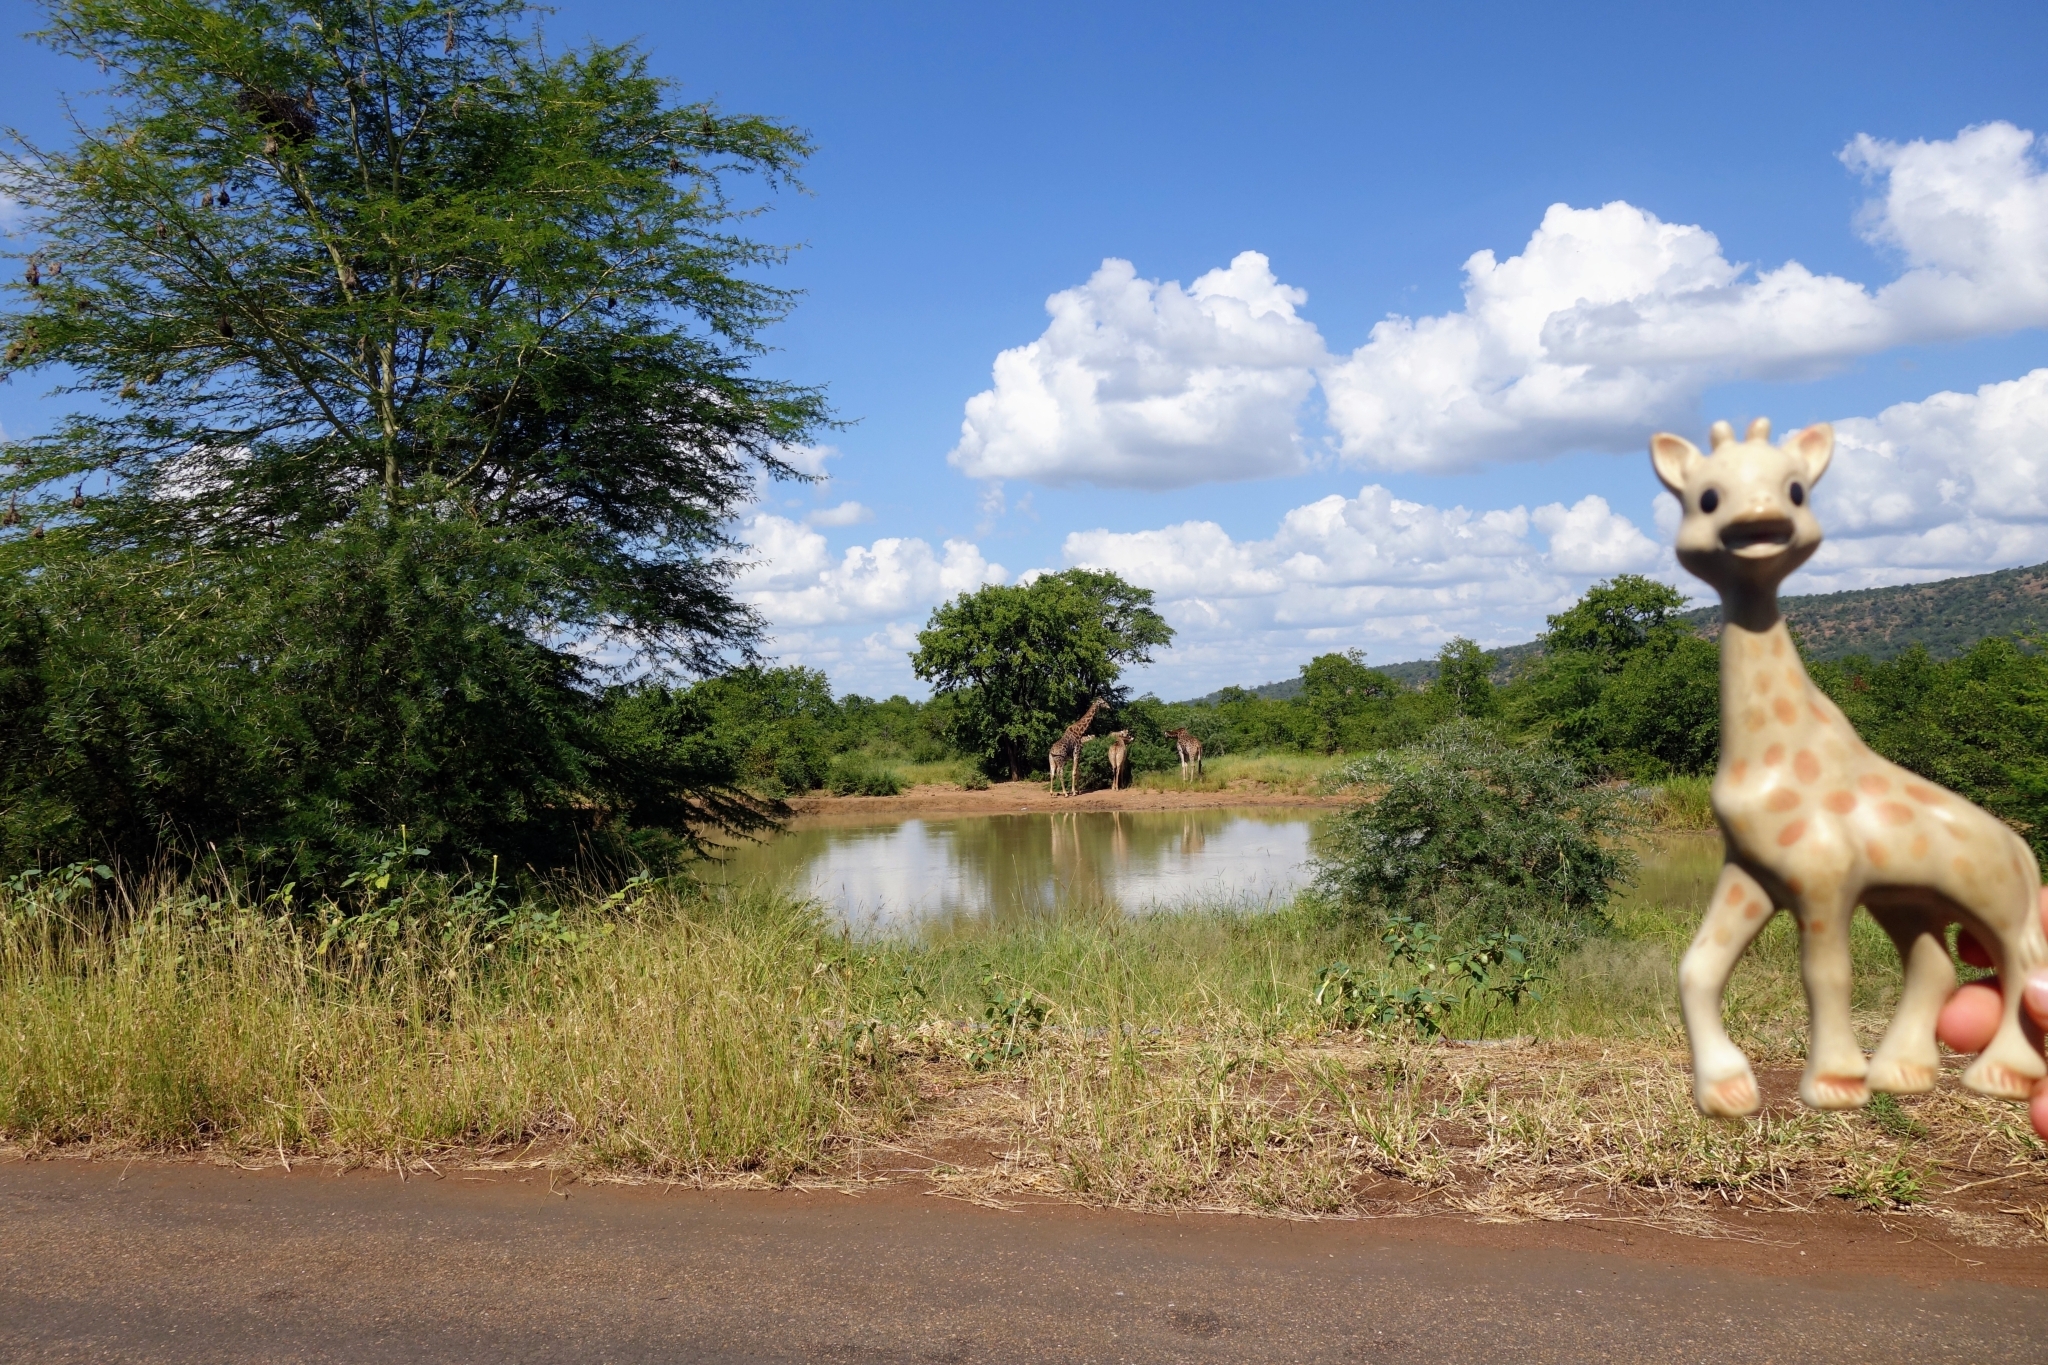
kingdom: Animalia
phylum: Chordata
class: Mammalia
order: Artiodactyla
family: Giraffidae
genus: Giraffa
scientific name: Giraffa giraffa
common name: Southern giraffe
